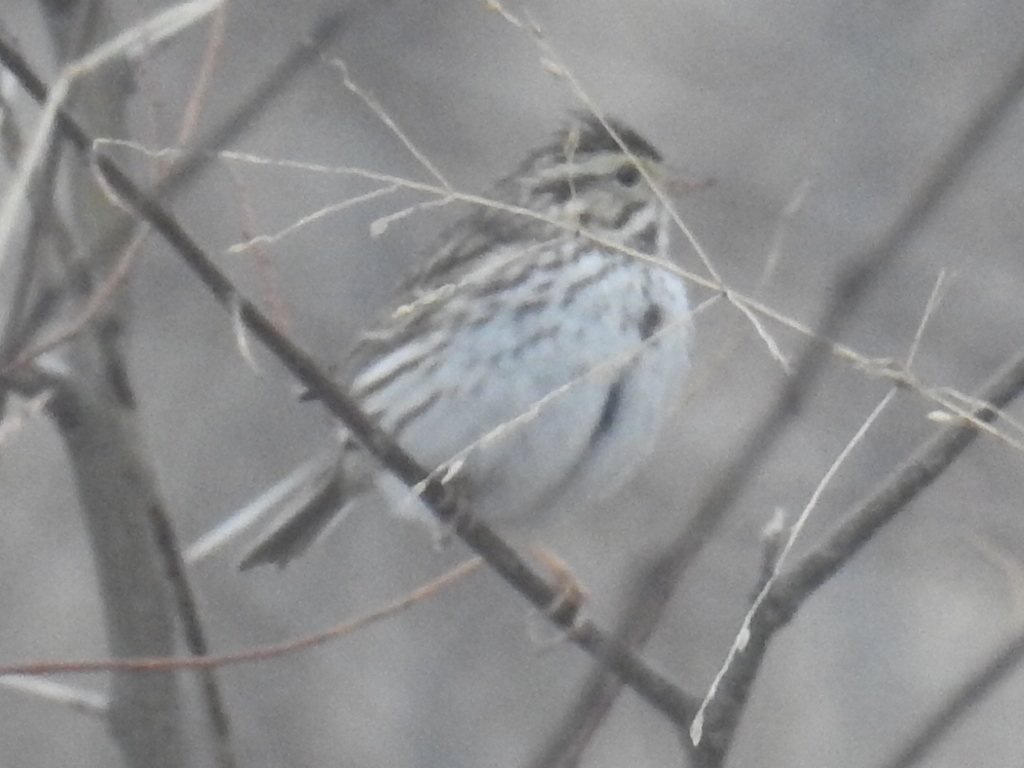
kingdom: Animalia
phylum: Chordata
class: Aves
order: Passeriformes
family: Passerellidae
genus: Passerculus
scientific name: Passerculus sandwichensis
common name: Savannah sparrow
